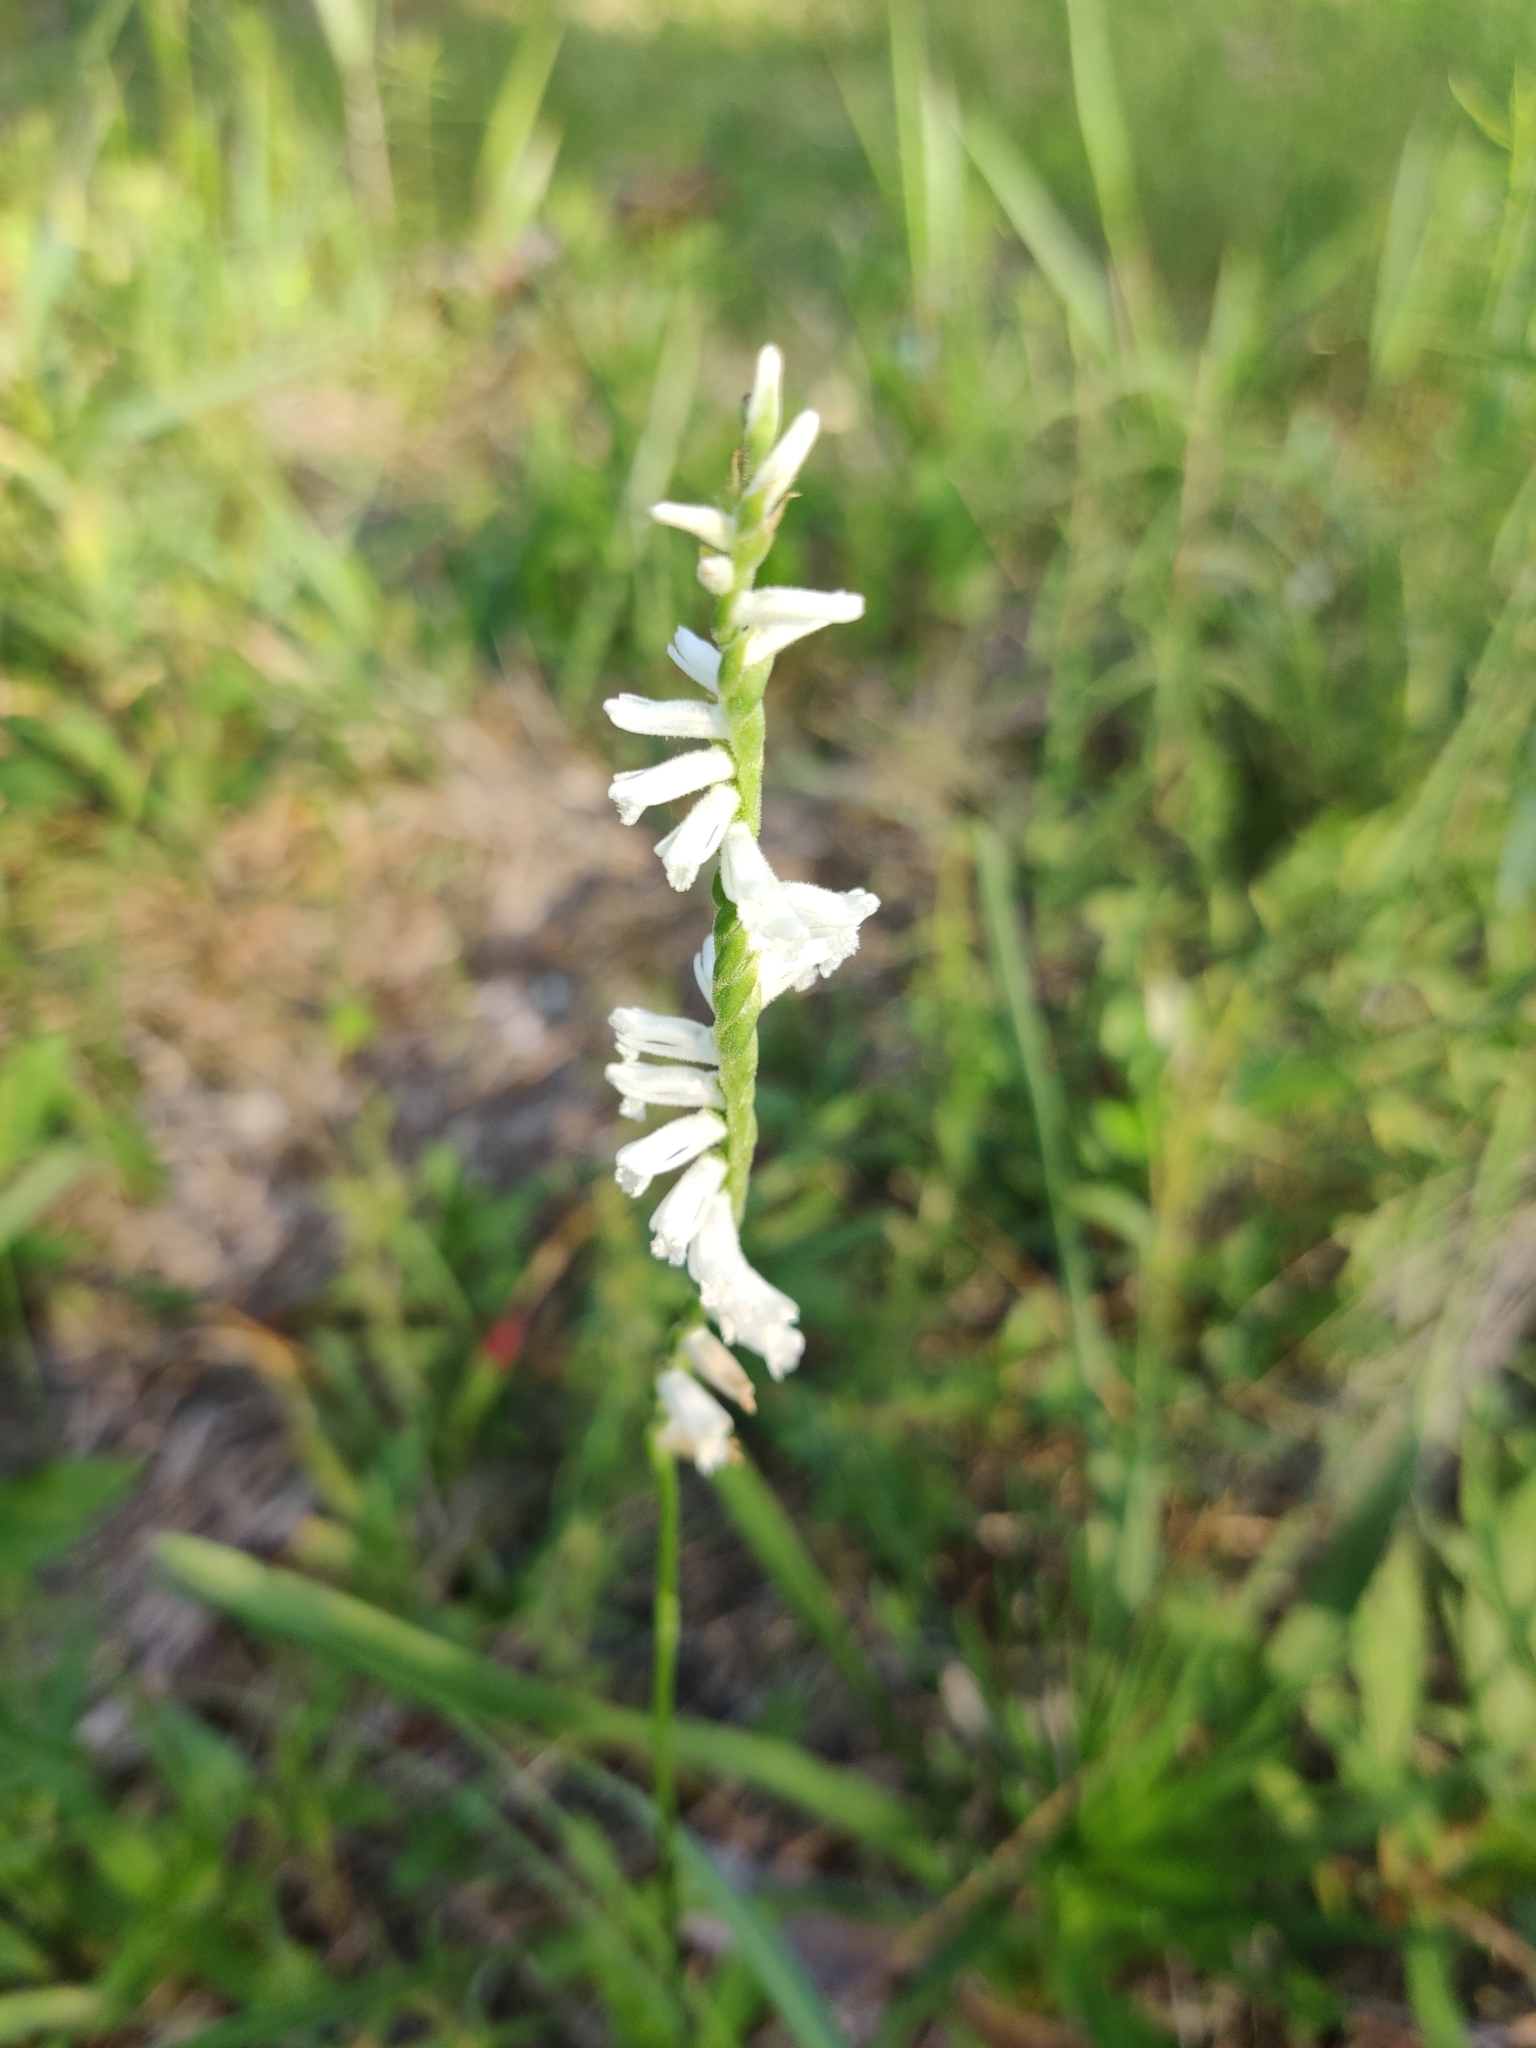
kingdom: Plantae
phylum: Tracheophyta
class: Liliopsida
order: Asparagales
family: Orchidaceae
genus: Spiranthes
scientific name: Spiranthes praecox
